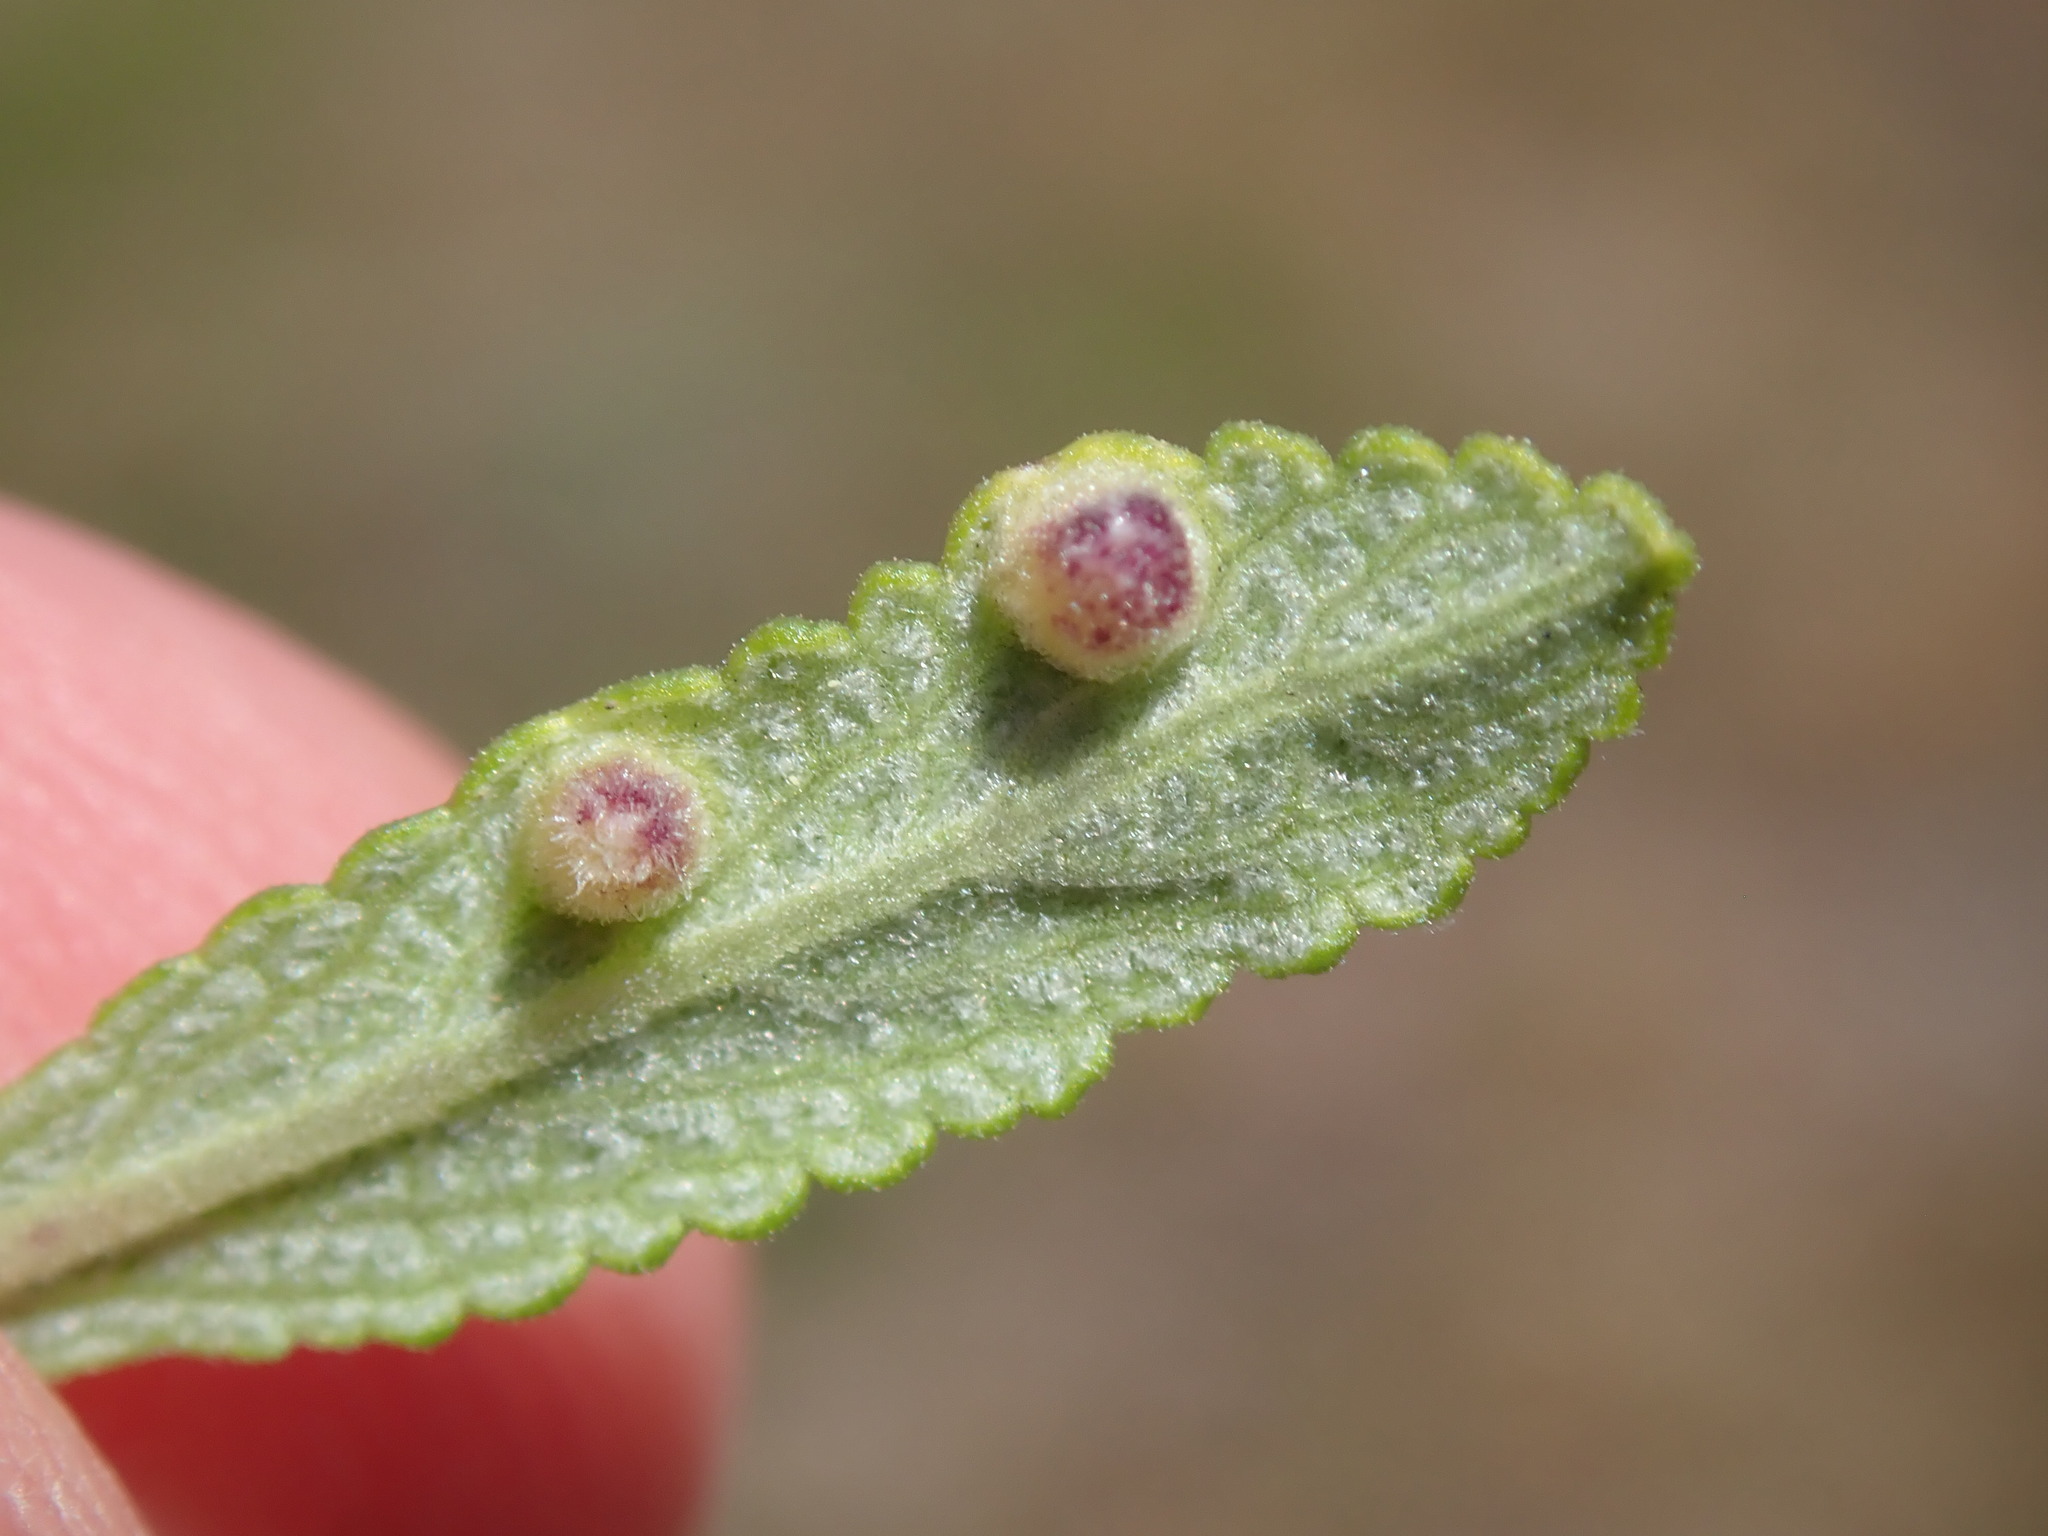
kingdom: Animalia
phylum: Arthropoda
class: Insecta
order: Diptera
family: Cecidomyiidae
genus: Rhopalomyia
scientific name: Rhopalomyia audibertiae
